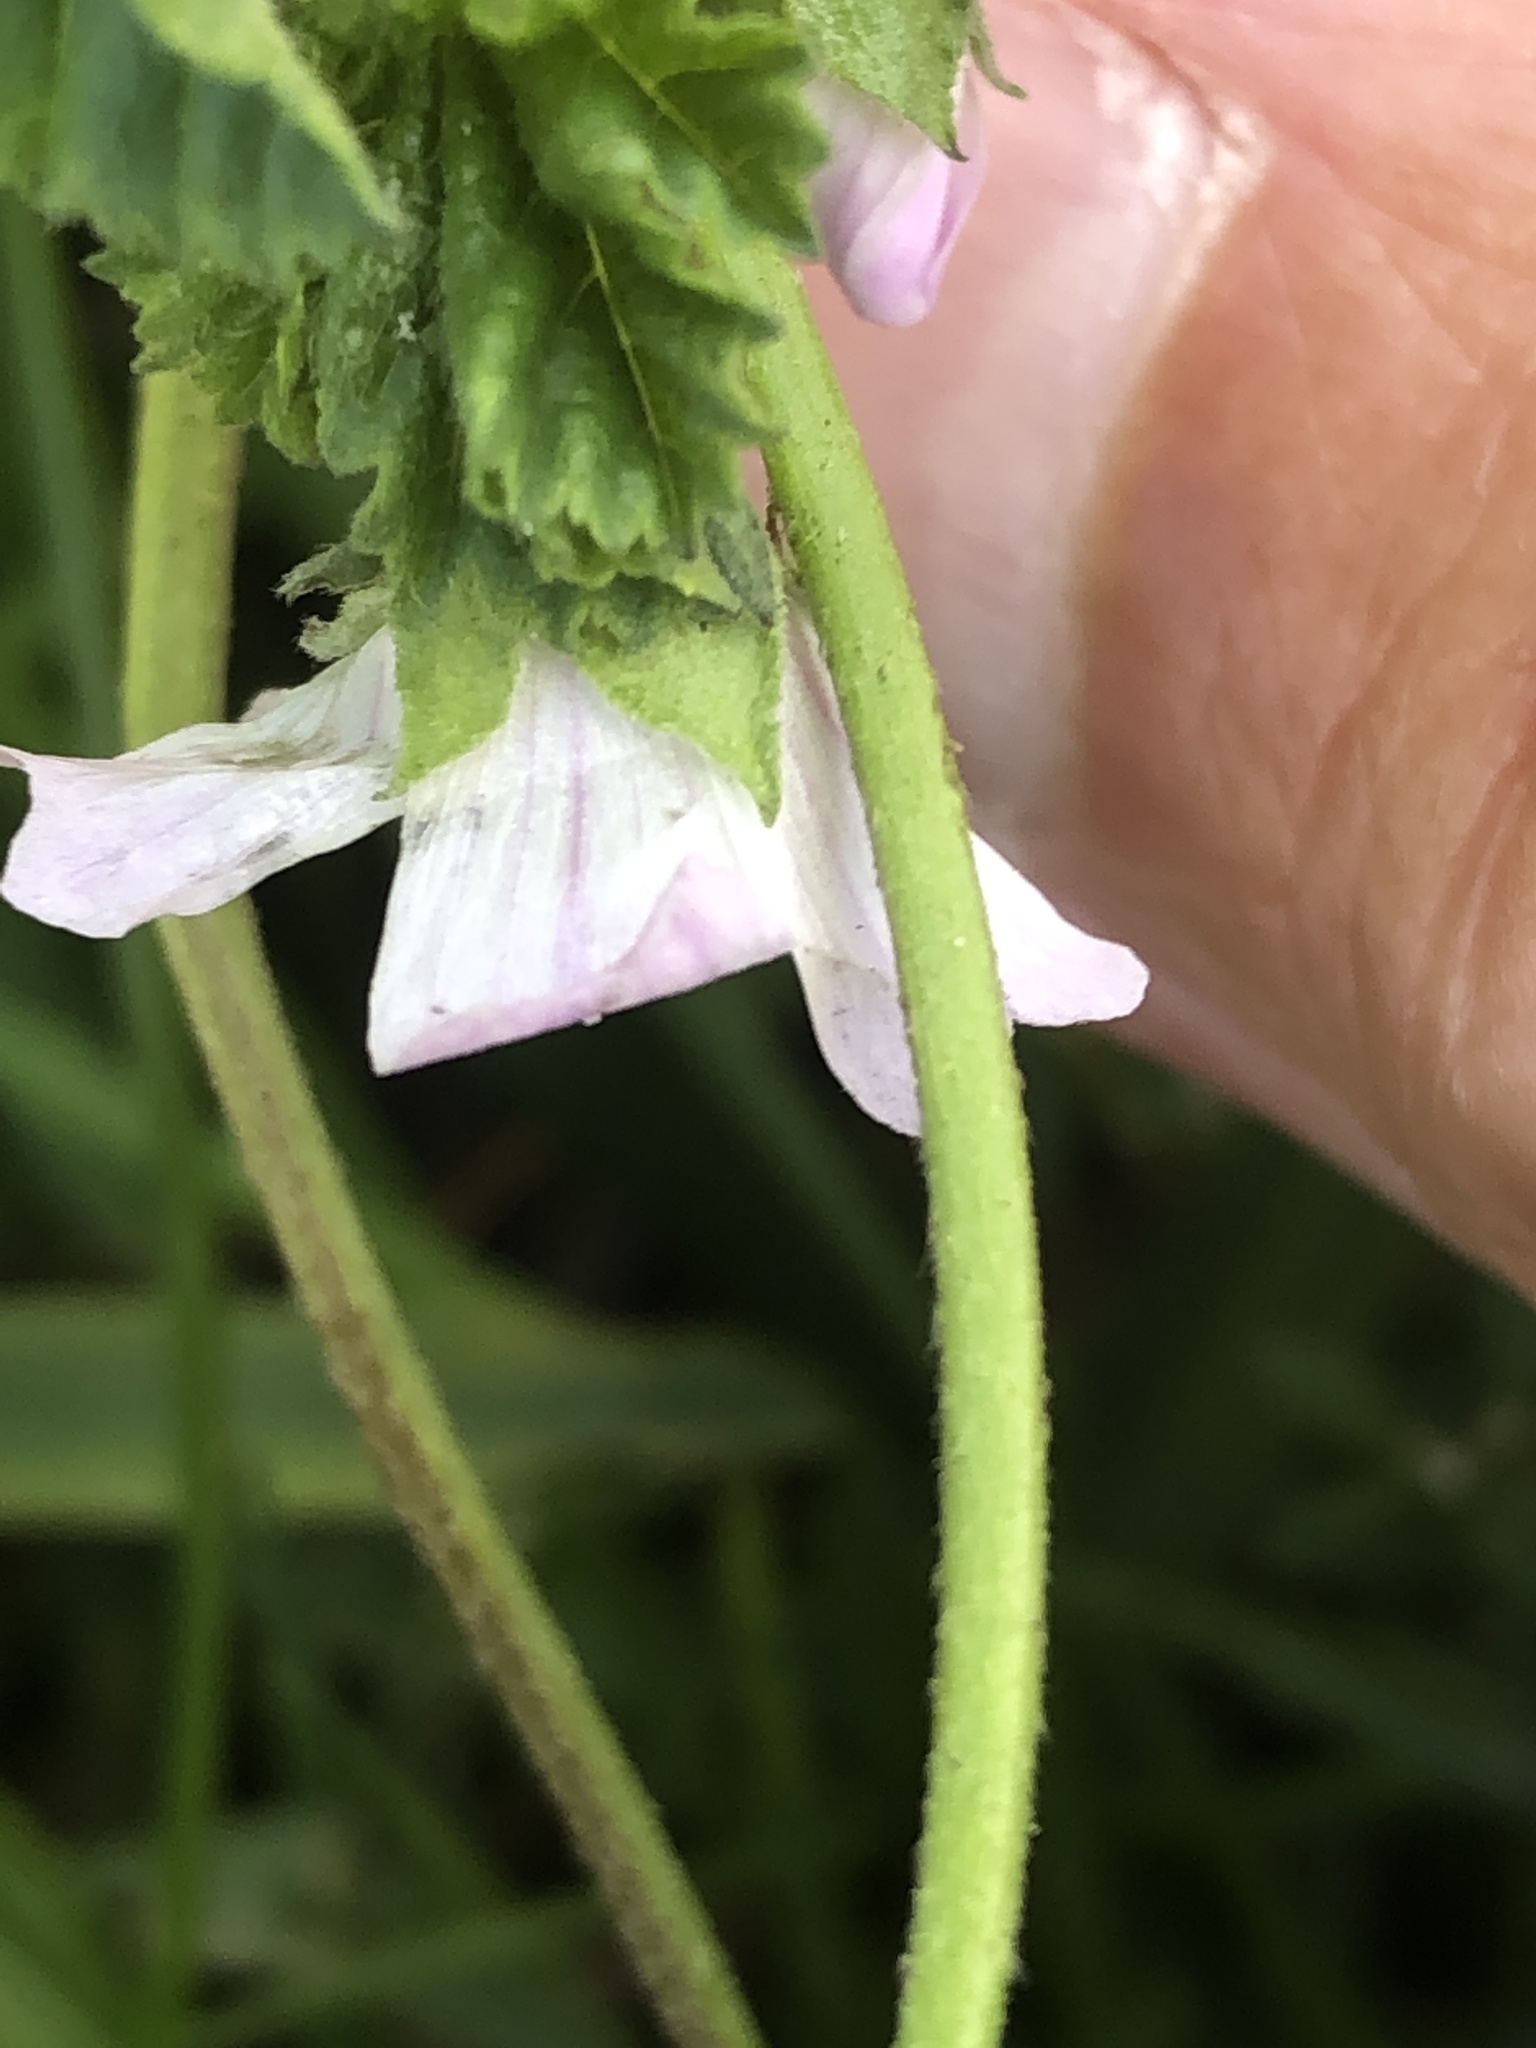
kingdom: Plantae
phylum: Tracheophyta
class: Magnoliopsida
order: Malvales
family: Malvaceae
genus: Malva
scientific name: Malva neglecta
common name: Common mallow
